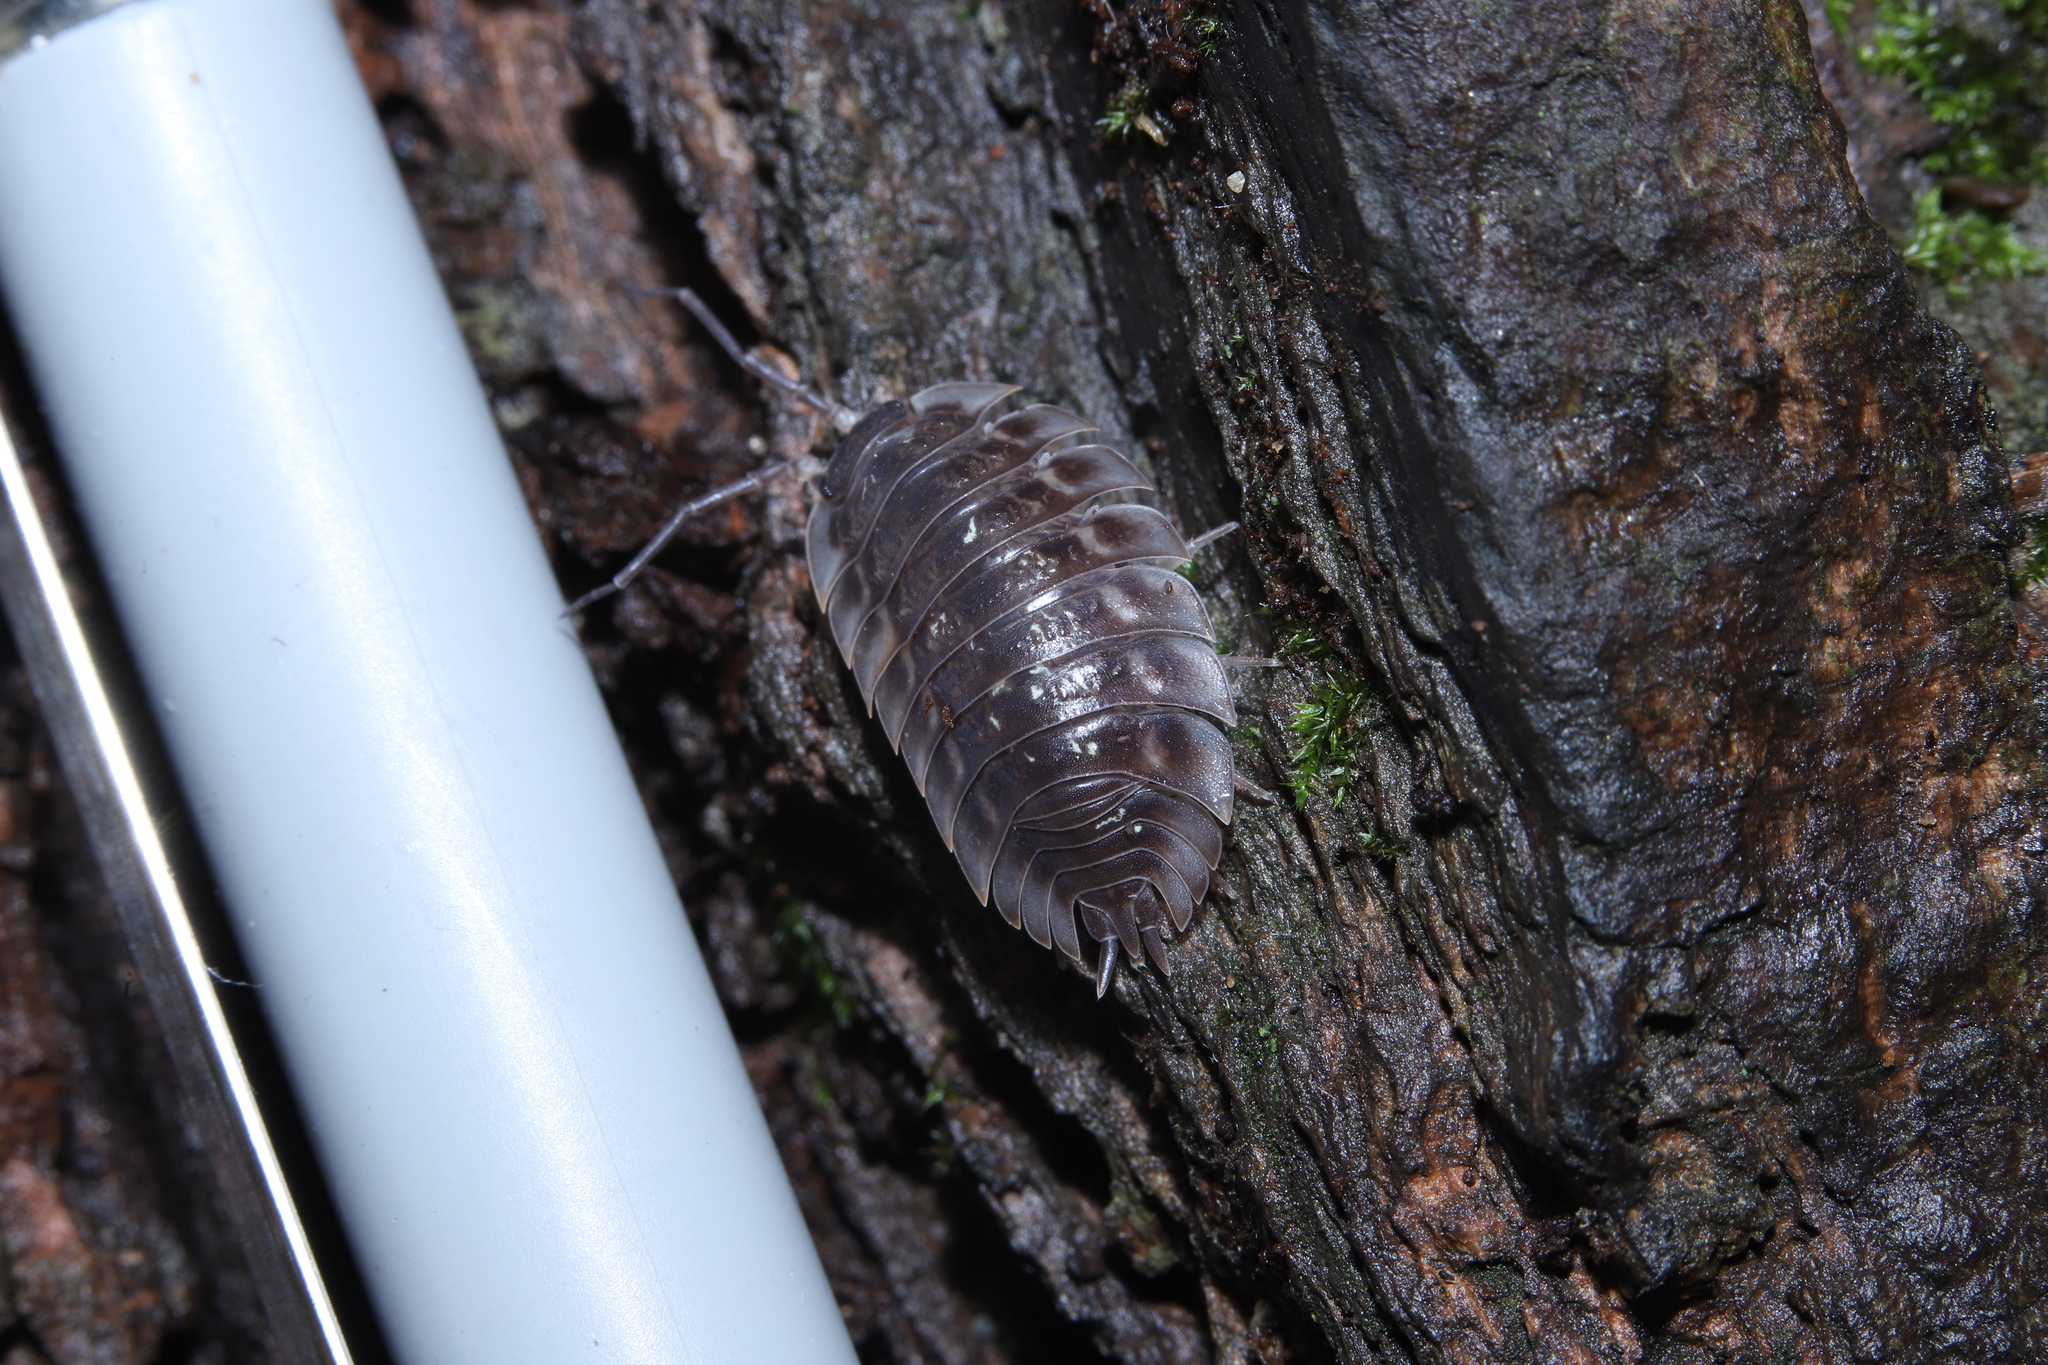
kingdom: Animalia
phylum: Arthropoda
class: Malacostraca
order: Isopoda
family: Oniscidae
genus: Oniscus
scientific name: Oniscus asellus
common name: Common shiny woodlouse
